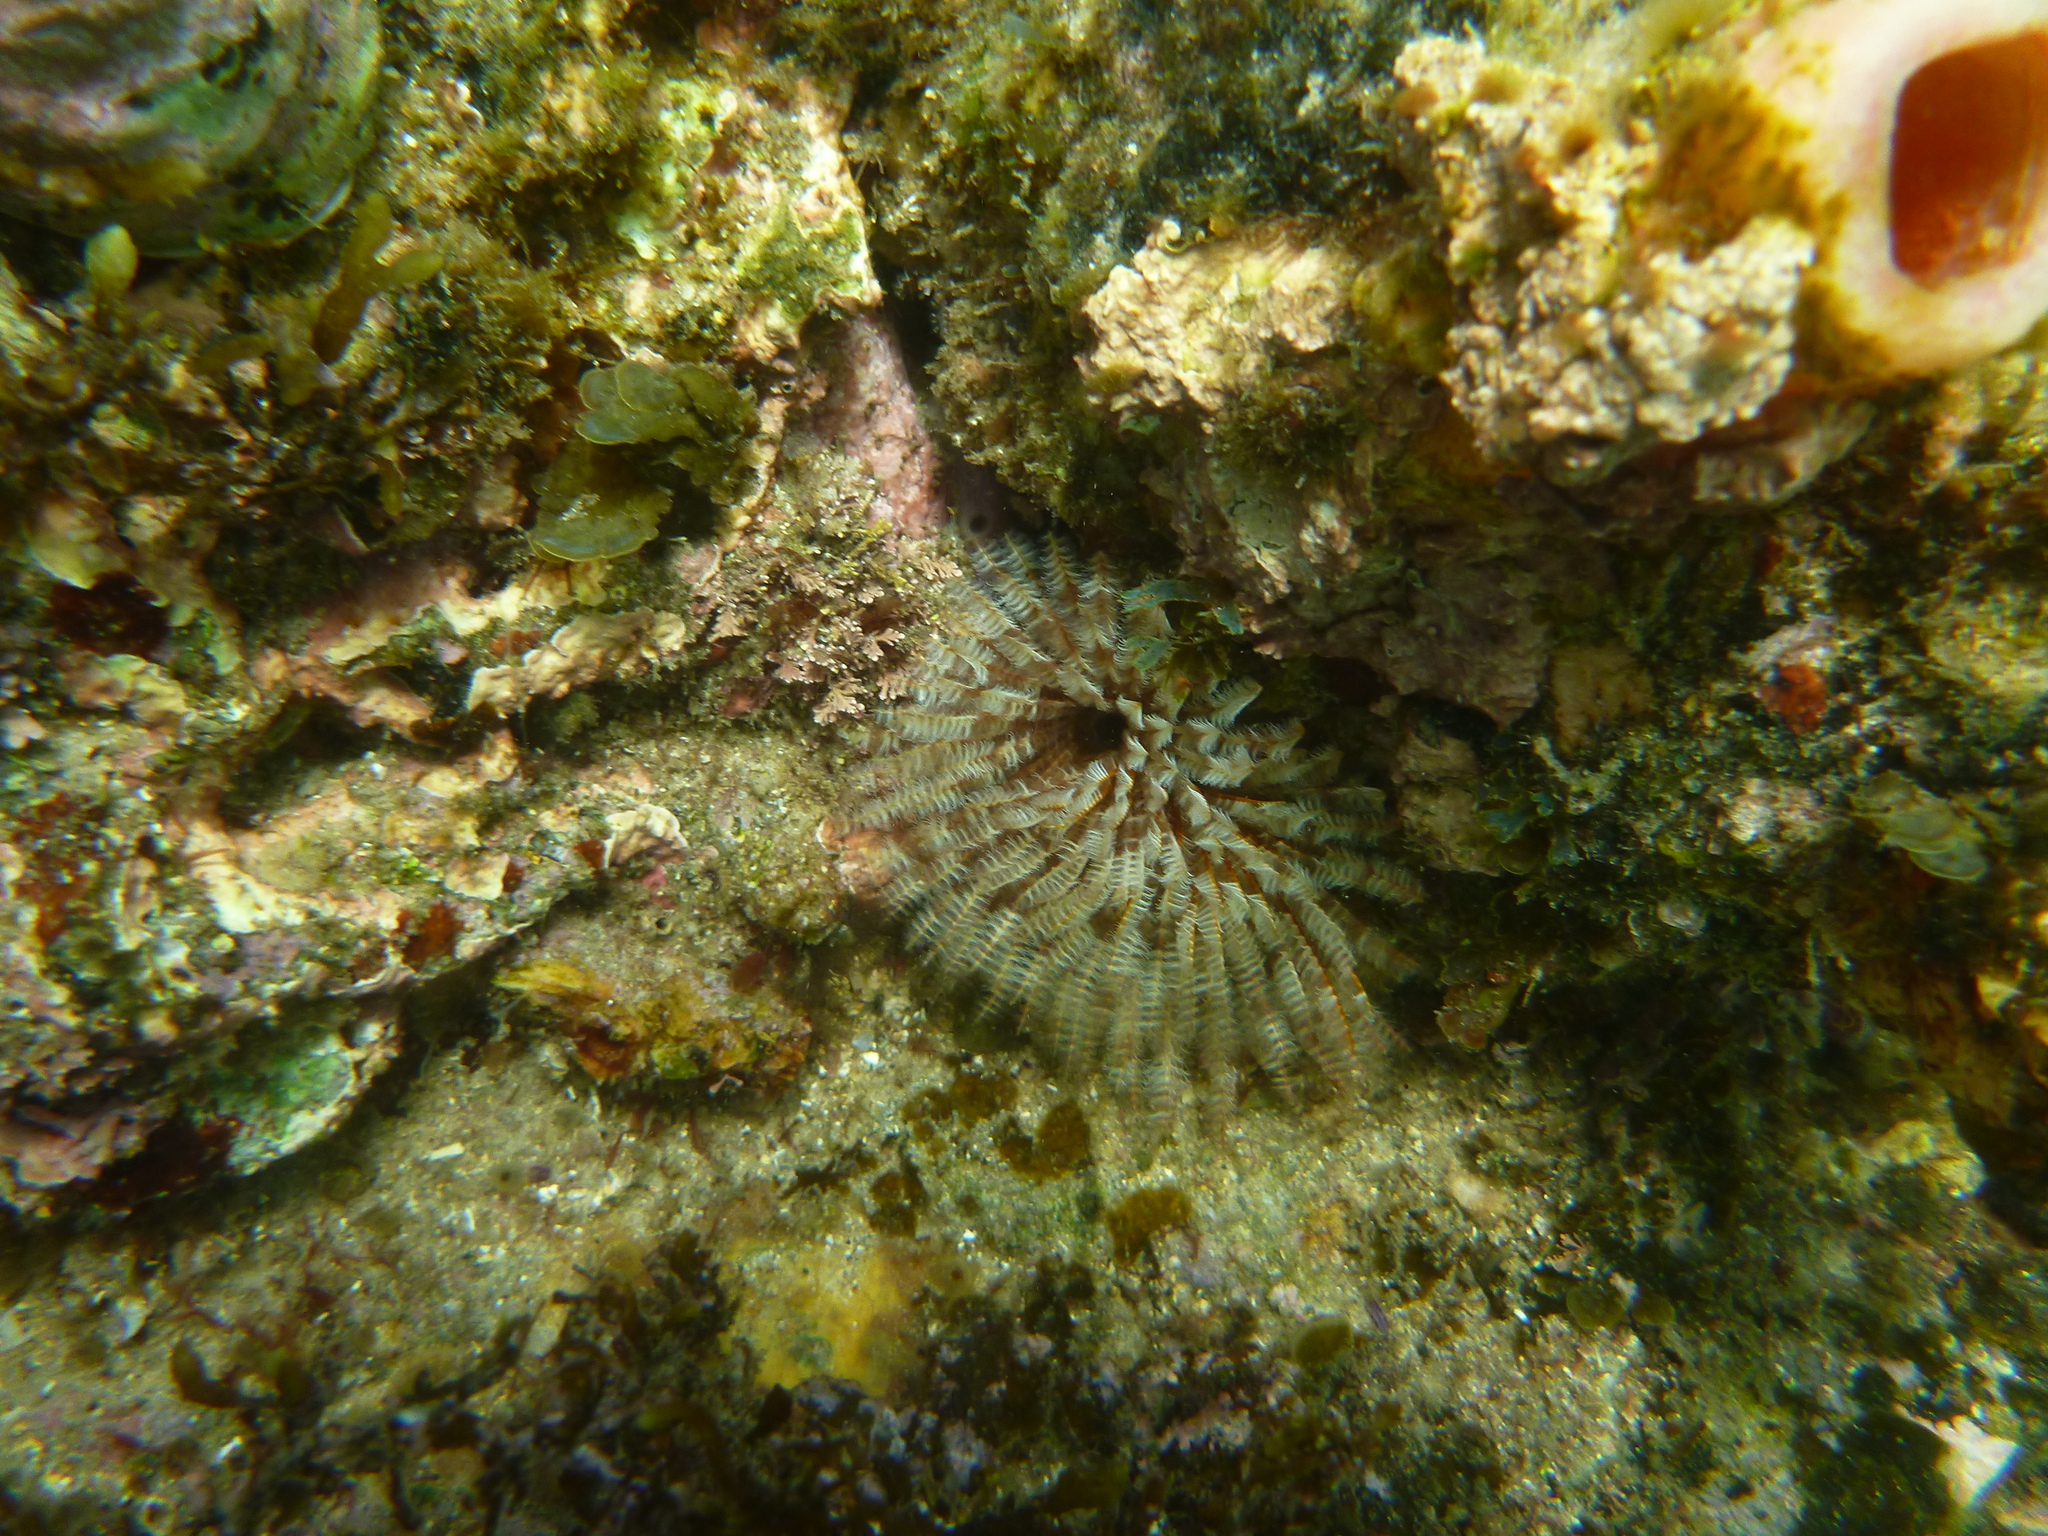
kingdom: Animalia
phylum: Annelida
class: Polychaeta
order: Sabellida
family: Sabellidae
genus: Sabellastarte
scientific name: Sabellastarte australiensis
